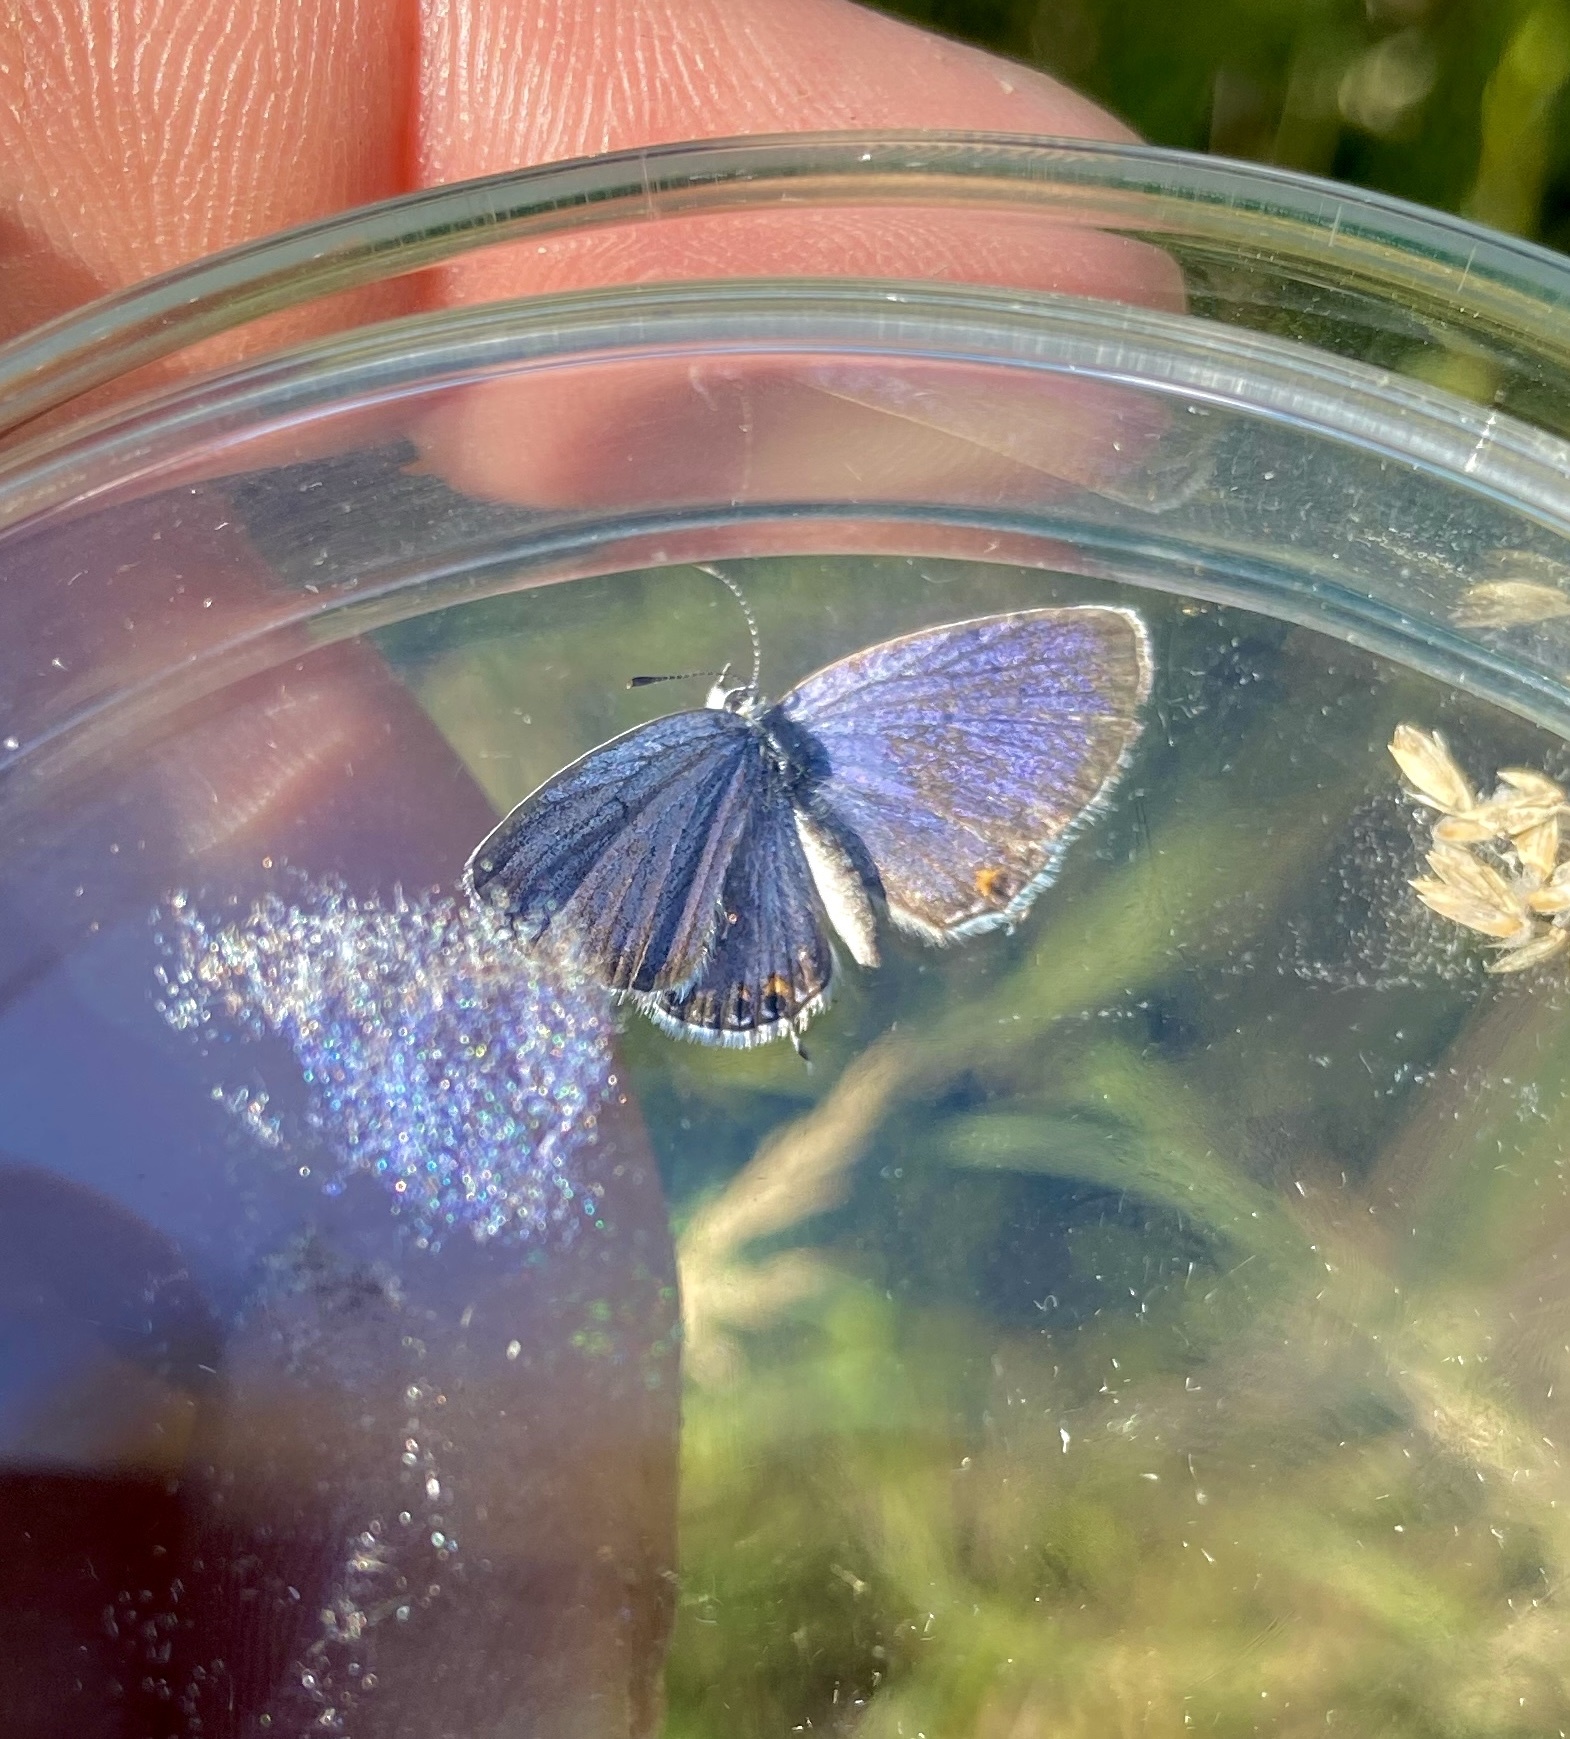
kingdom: Animalia
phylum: Arthropoda
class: Insecta
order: Lepidoptera
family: Lycaenidae
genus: Elkalyce
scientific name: Elkalyce comyntas
